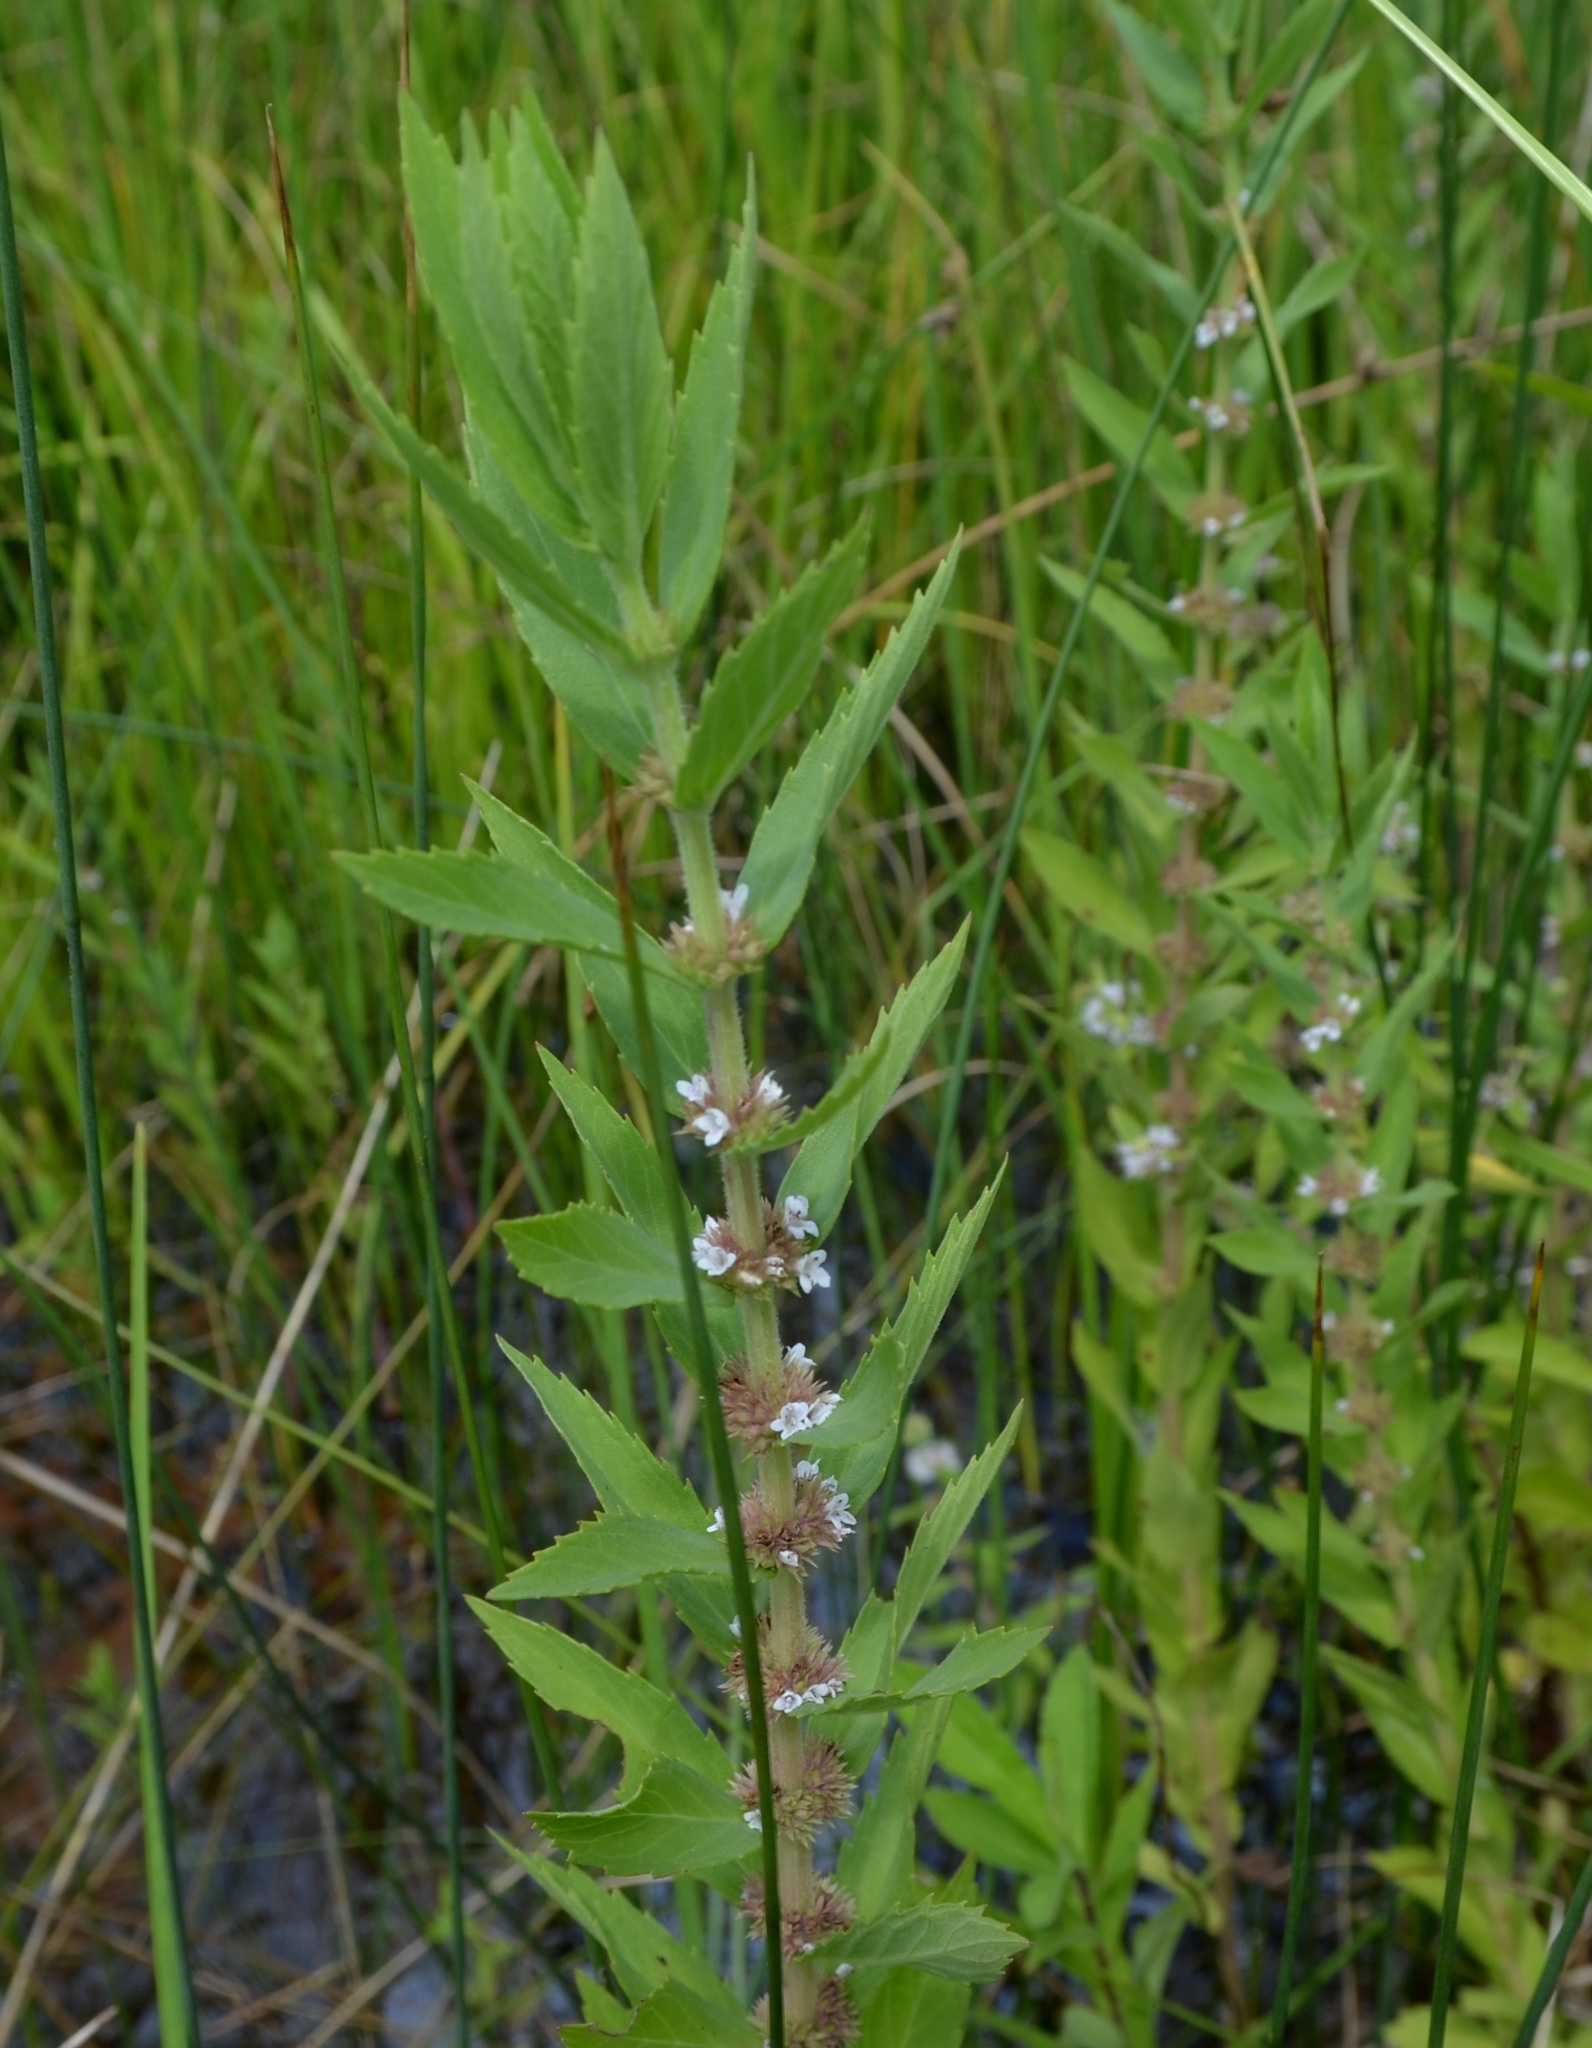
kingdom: Plantae
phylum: Tracheophyta
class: Magnoliopsida
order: Lamiales
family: Lamiaceae
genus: Lycopus
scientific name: Lycopus asper
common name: Rough water-horehound
